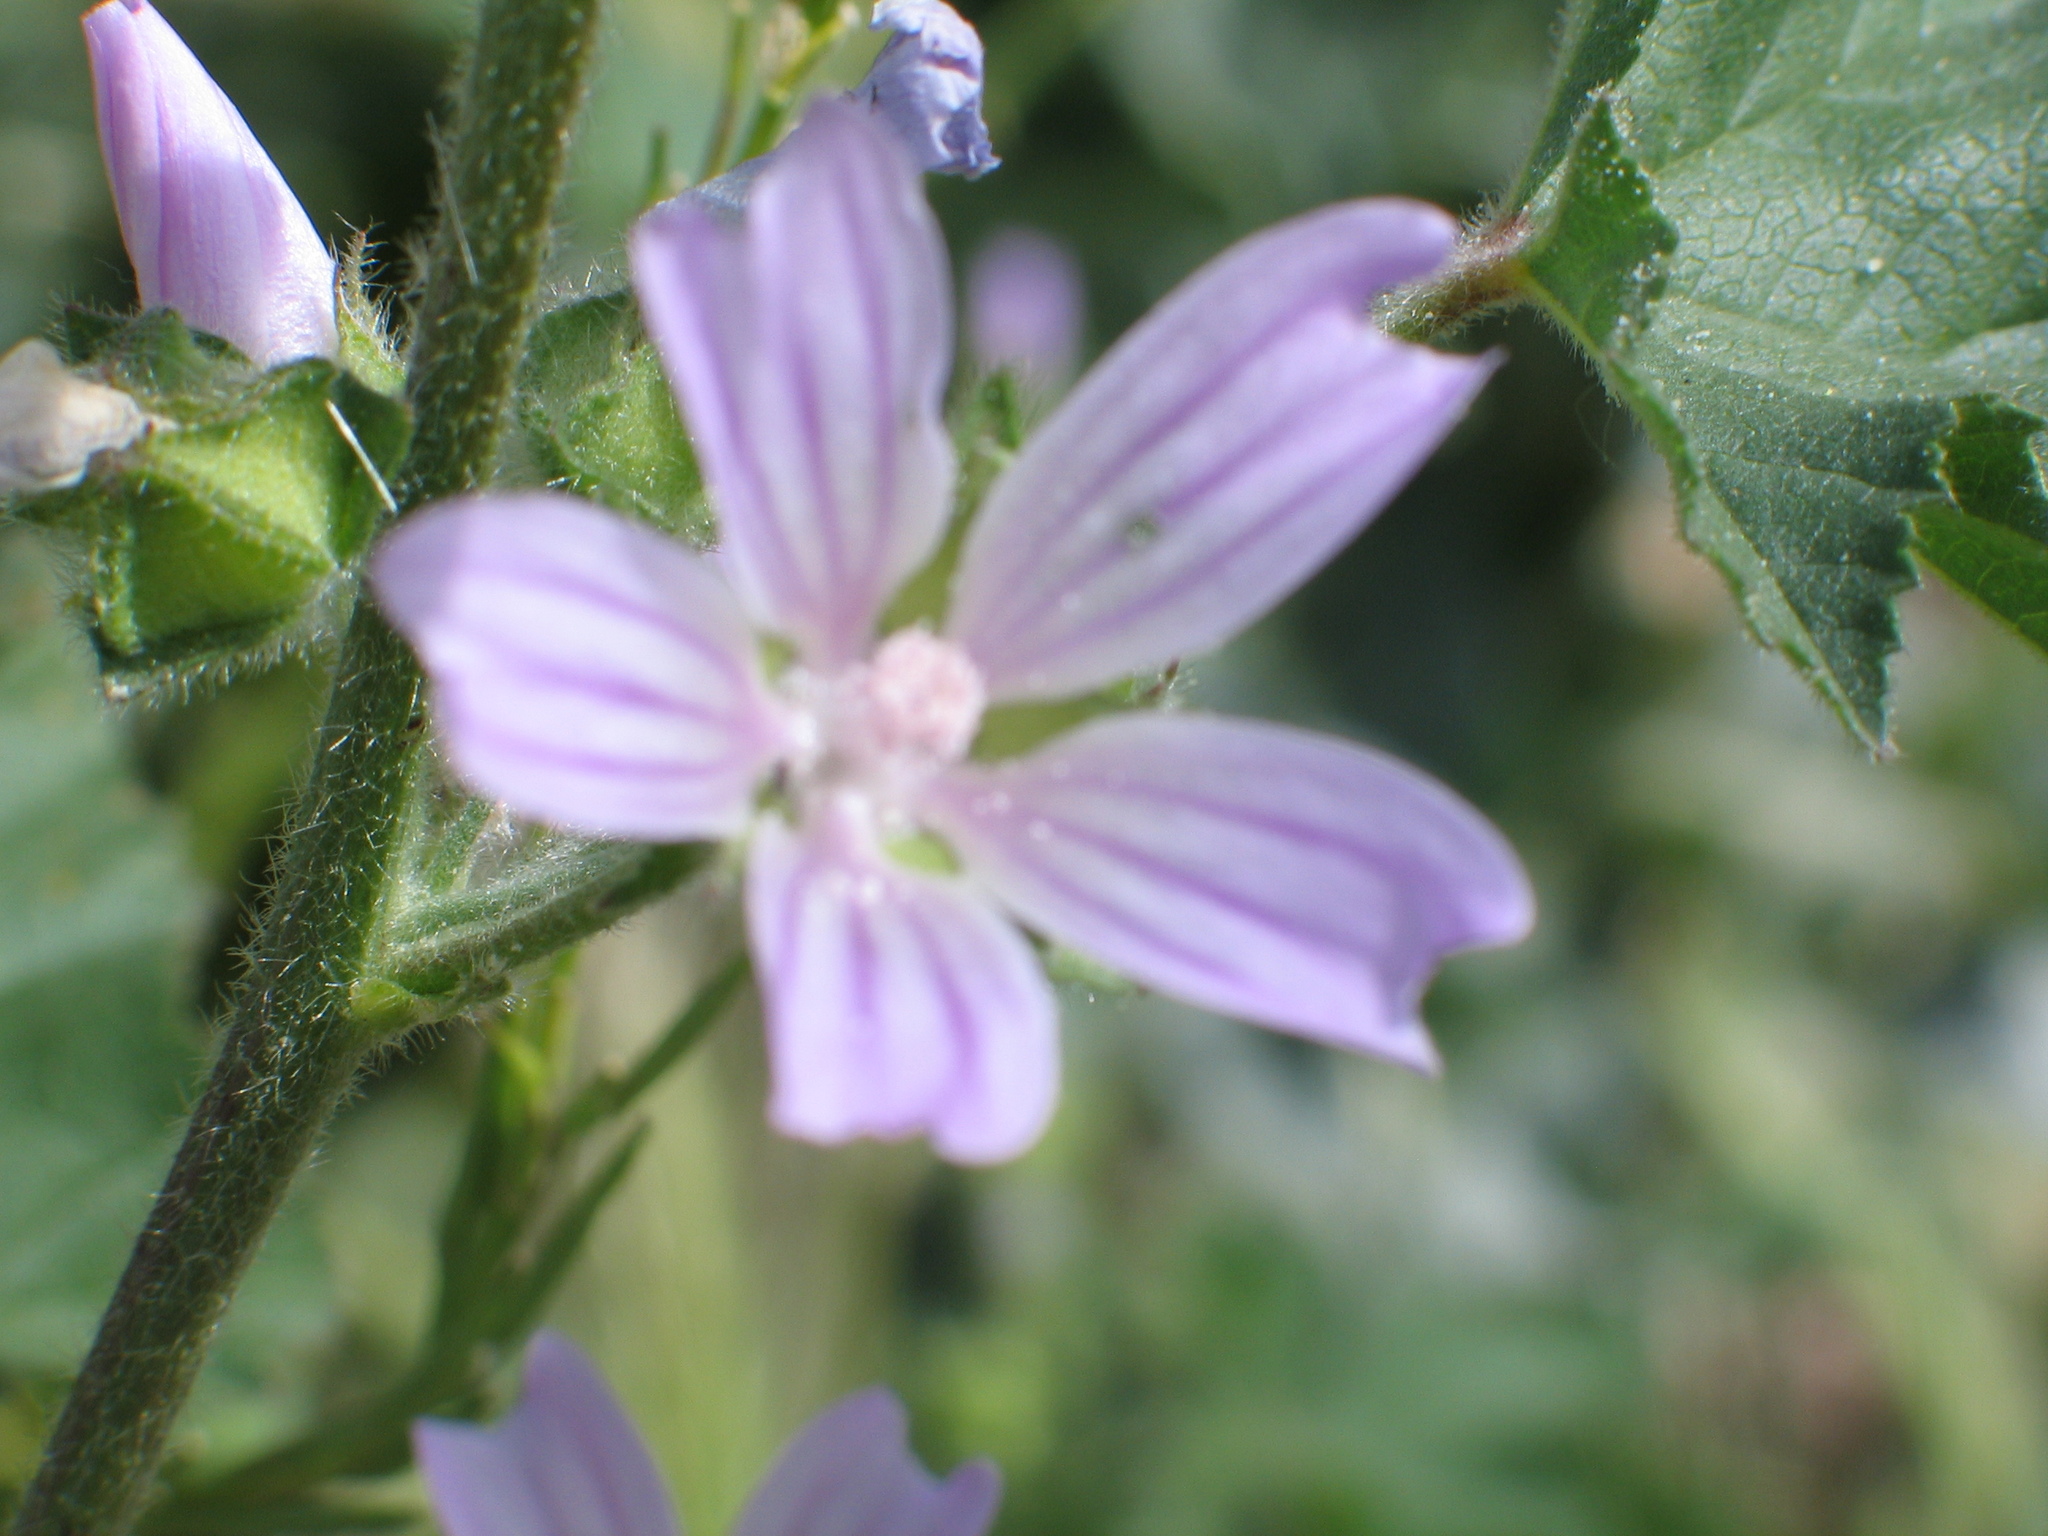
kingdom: Plantae
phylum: Tracheophyta
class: Magnoliopsida
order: Malvales
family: Malvaceae
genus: Malva
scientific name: Malva sylvestris
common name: Common mallow
